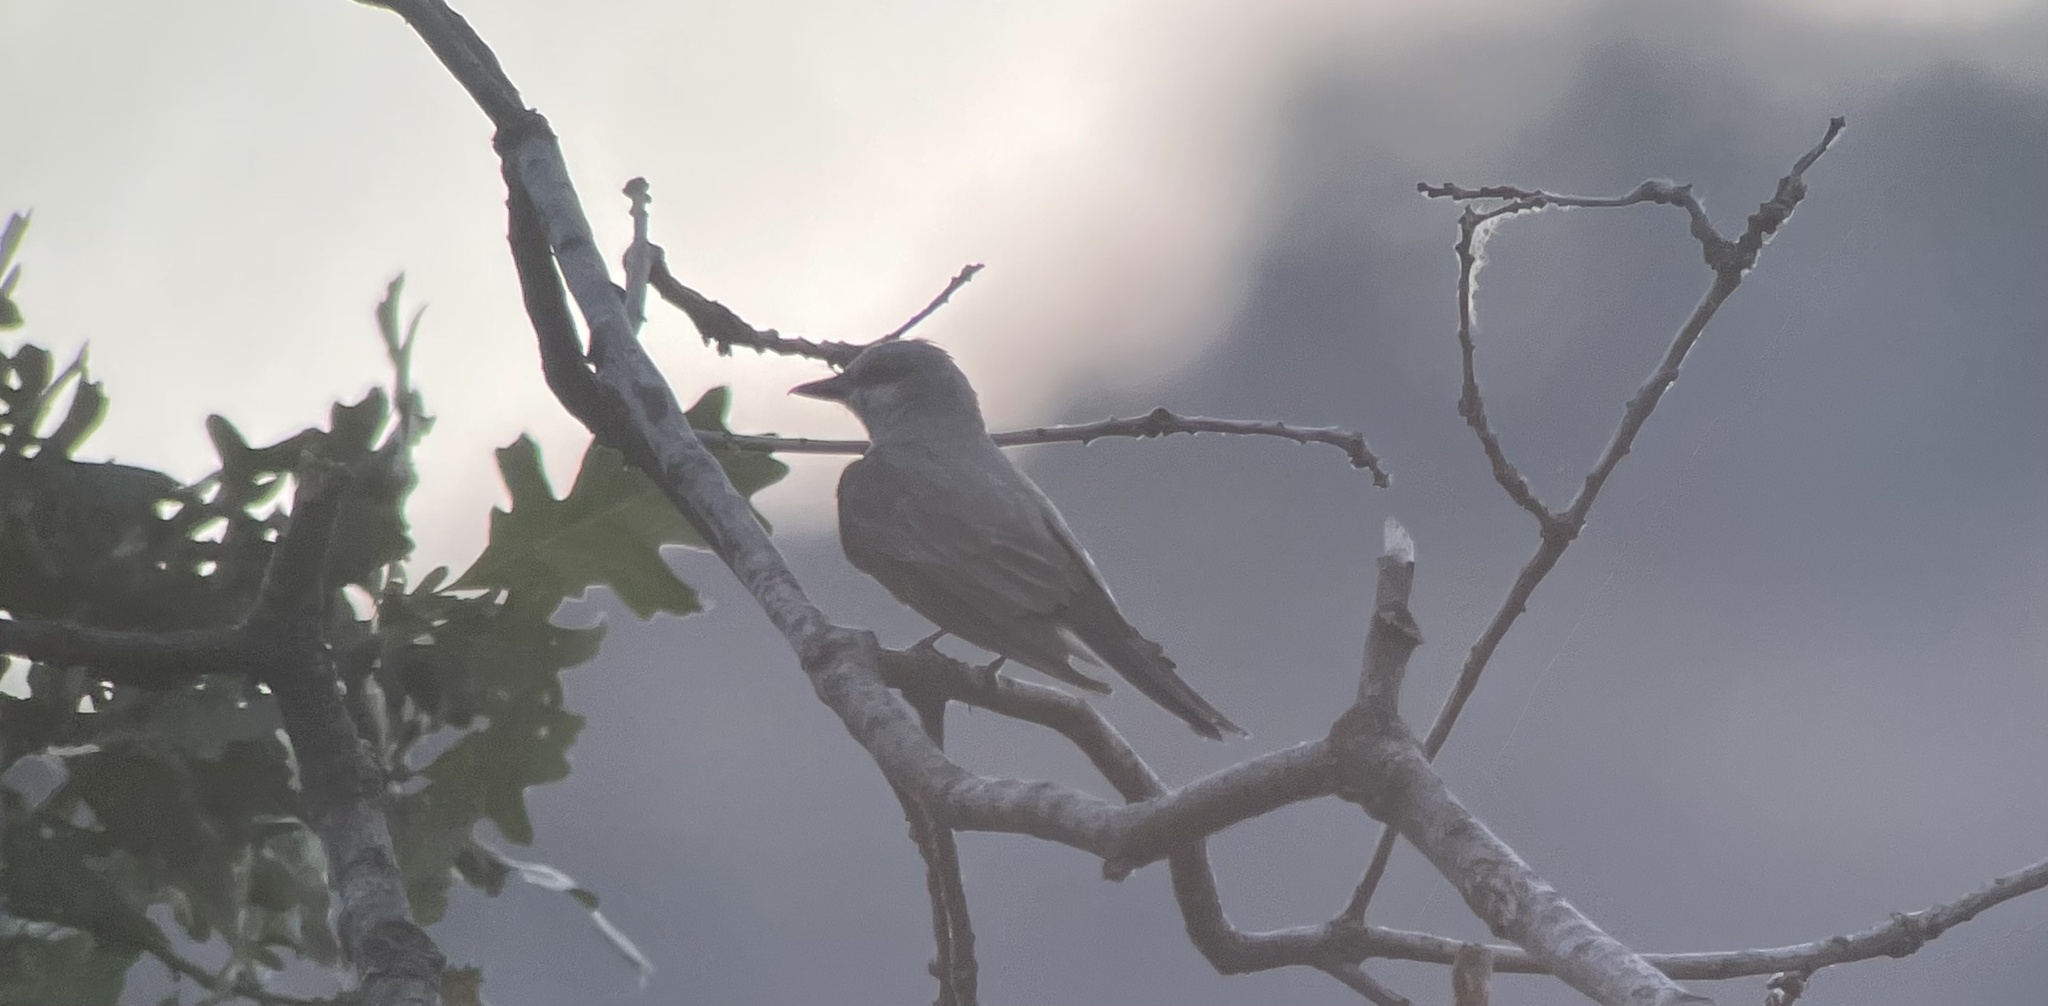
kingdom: Animalia
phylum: Chordata
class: Aves
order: Passeriformes
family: Tyrannidae
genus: Tyrannus
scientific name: Tyrannus verticalis
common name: Western kingbird
